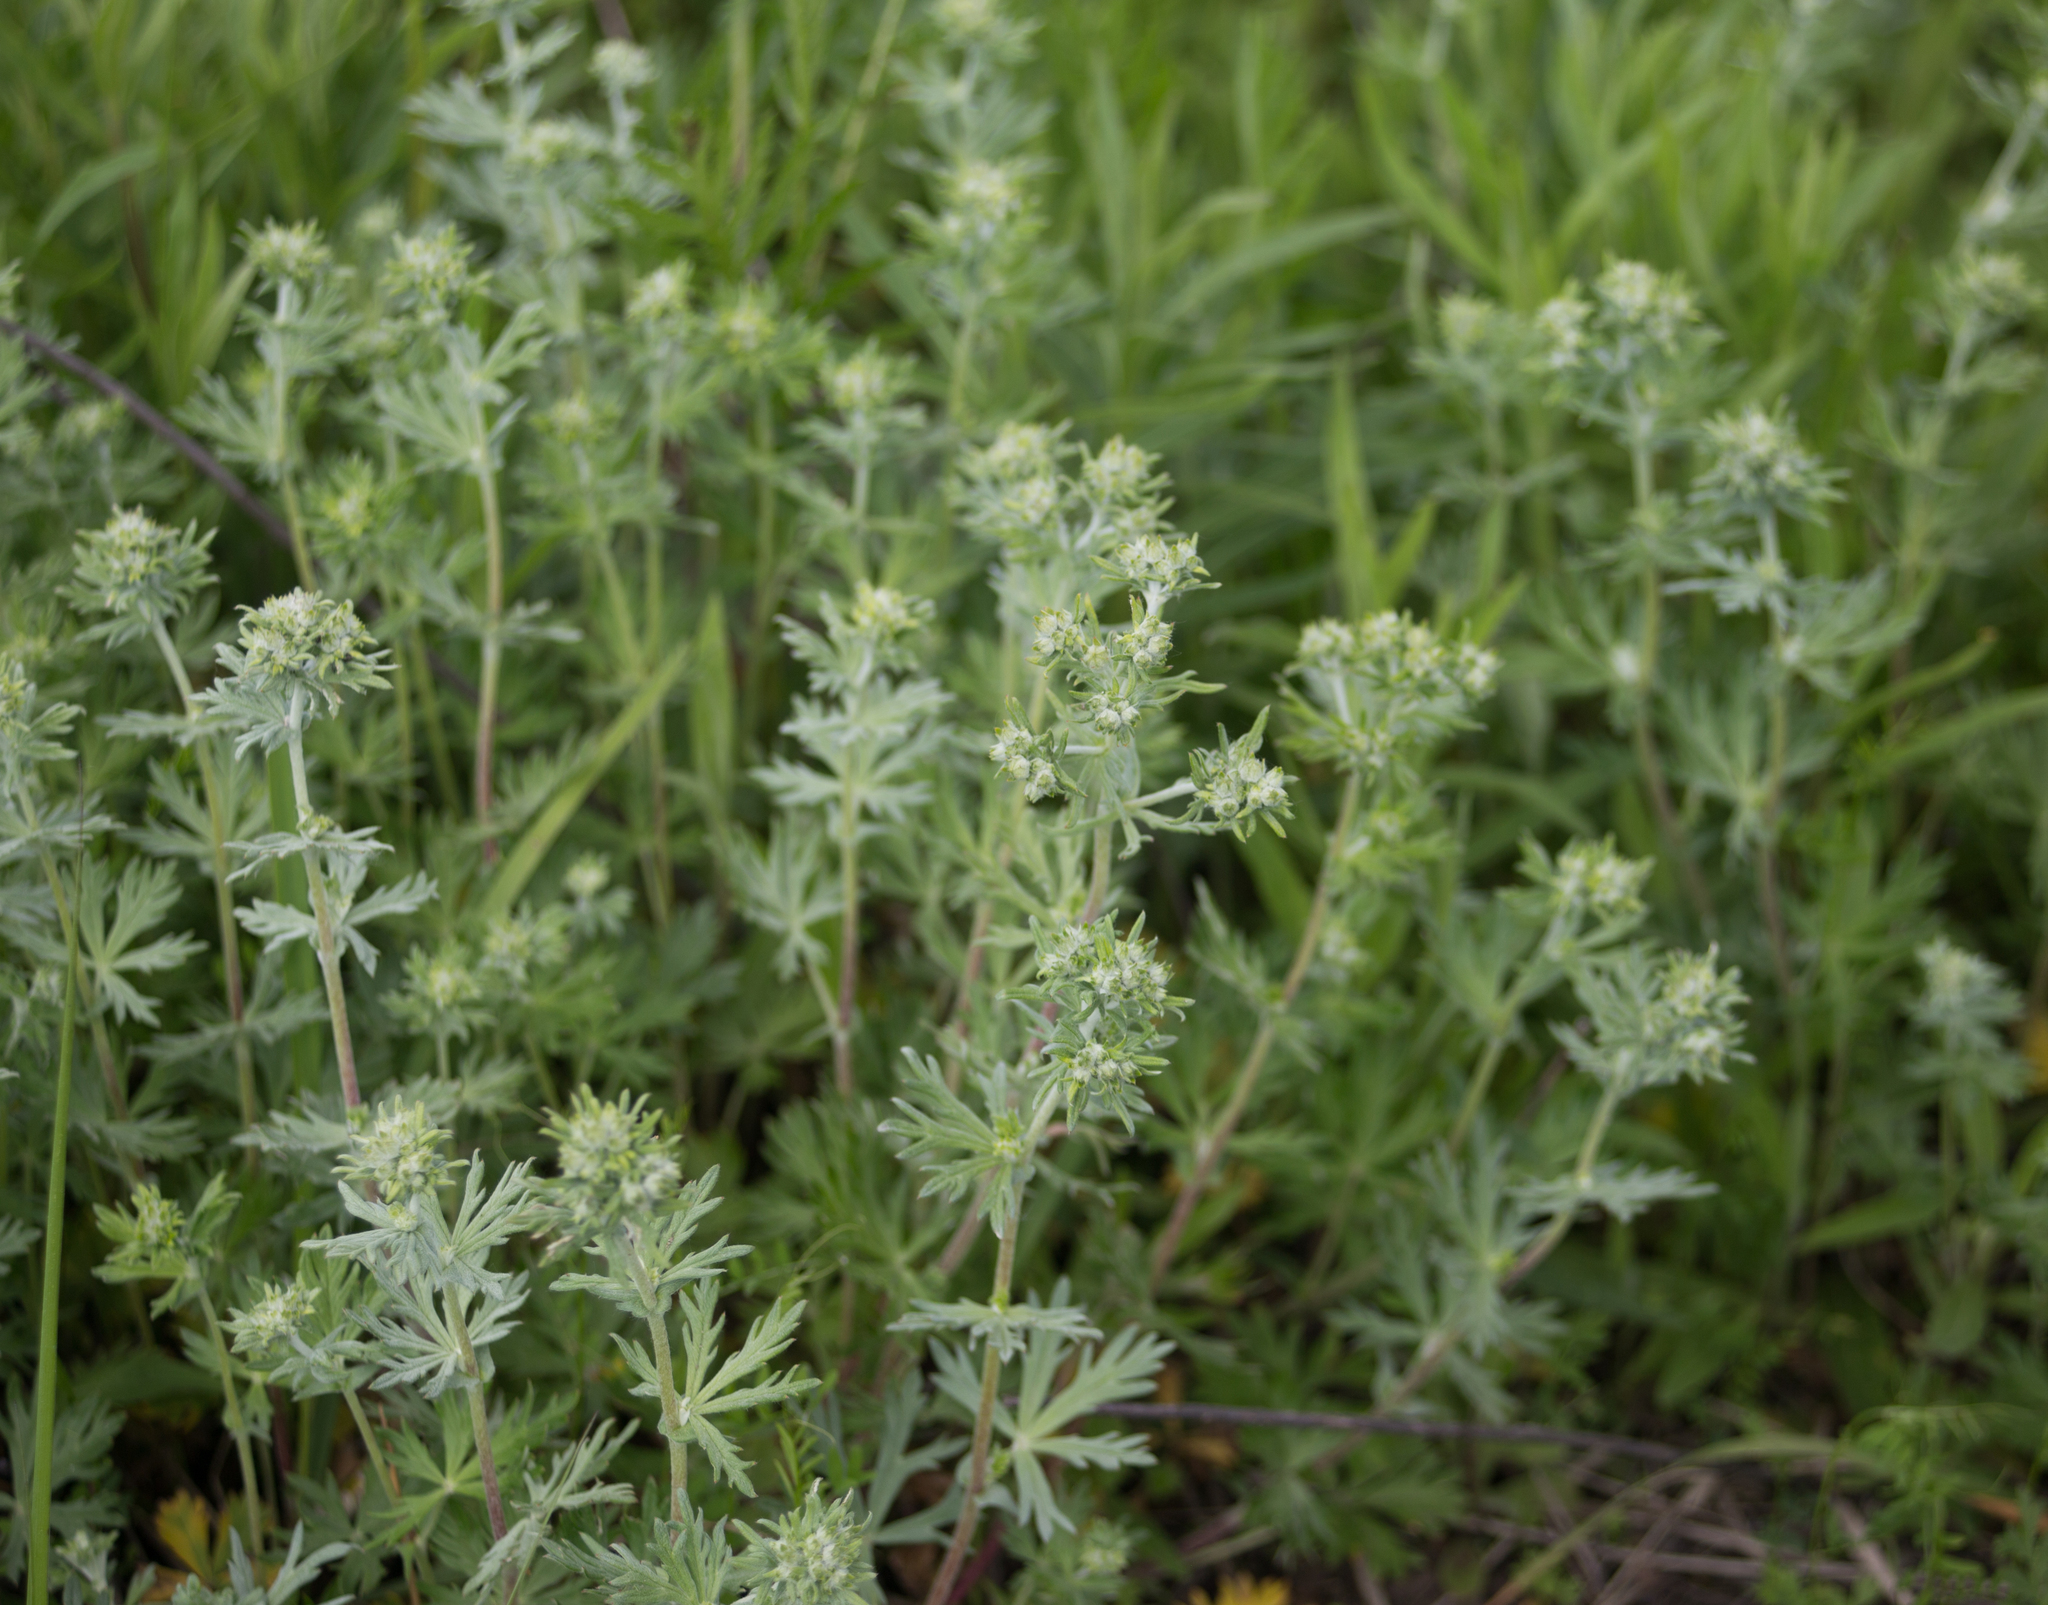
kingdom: Plantae
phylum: Tracheophyta
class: Magnoliopsida
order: Rosales
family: Rosaceae
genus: Potentilla
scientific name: Potentilla argentea
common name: Hoary cinquefoil
